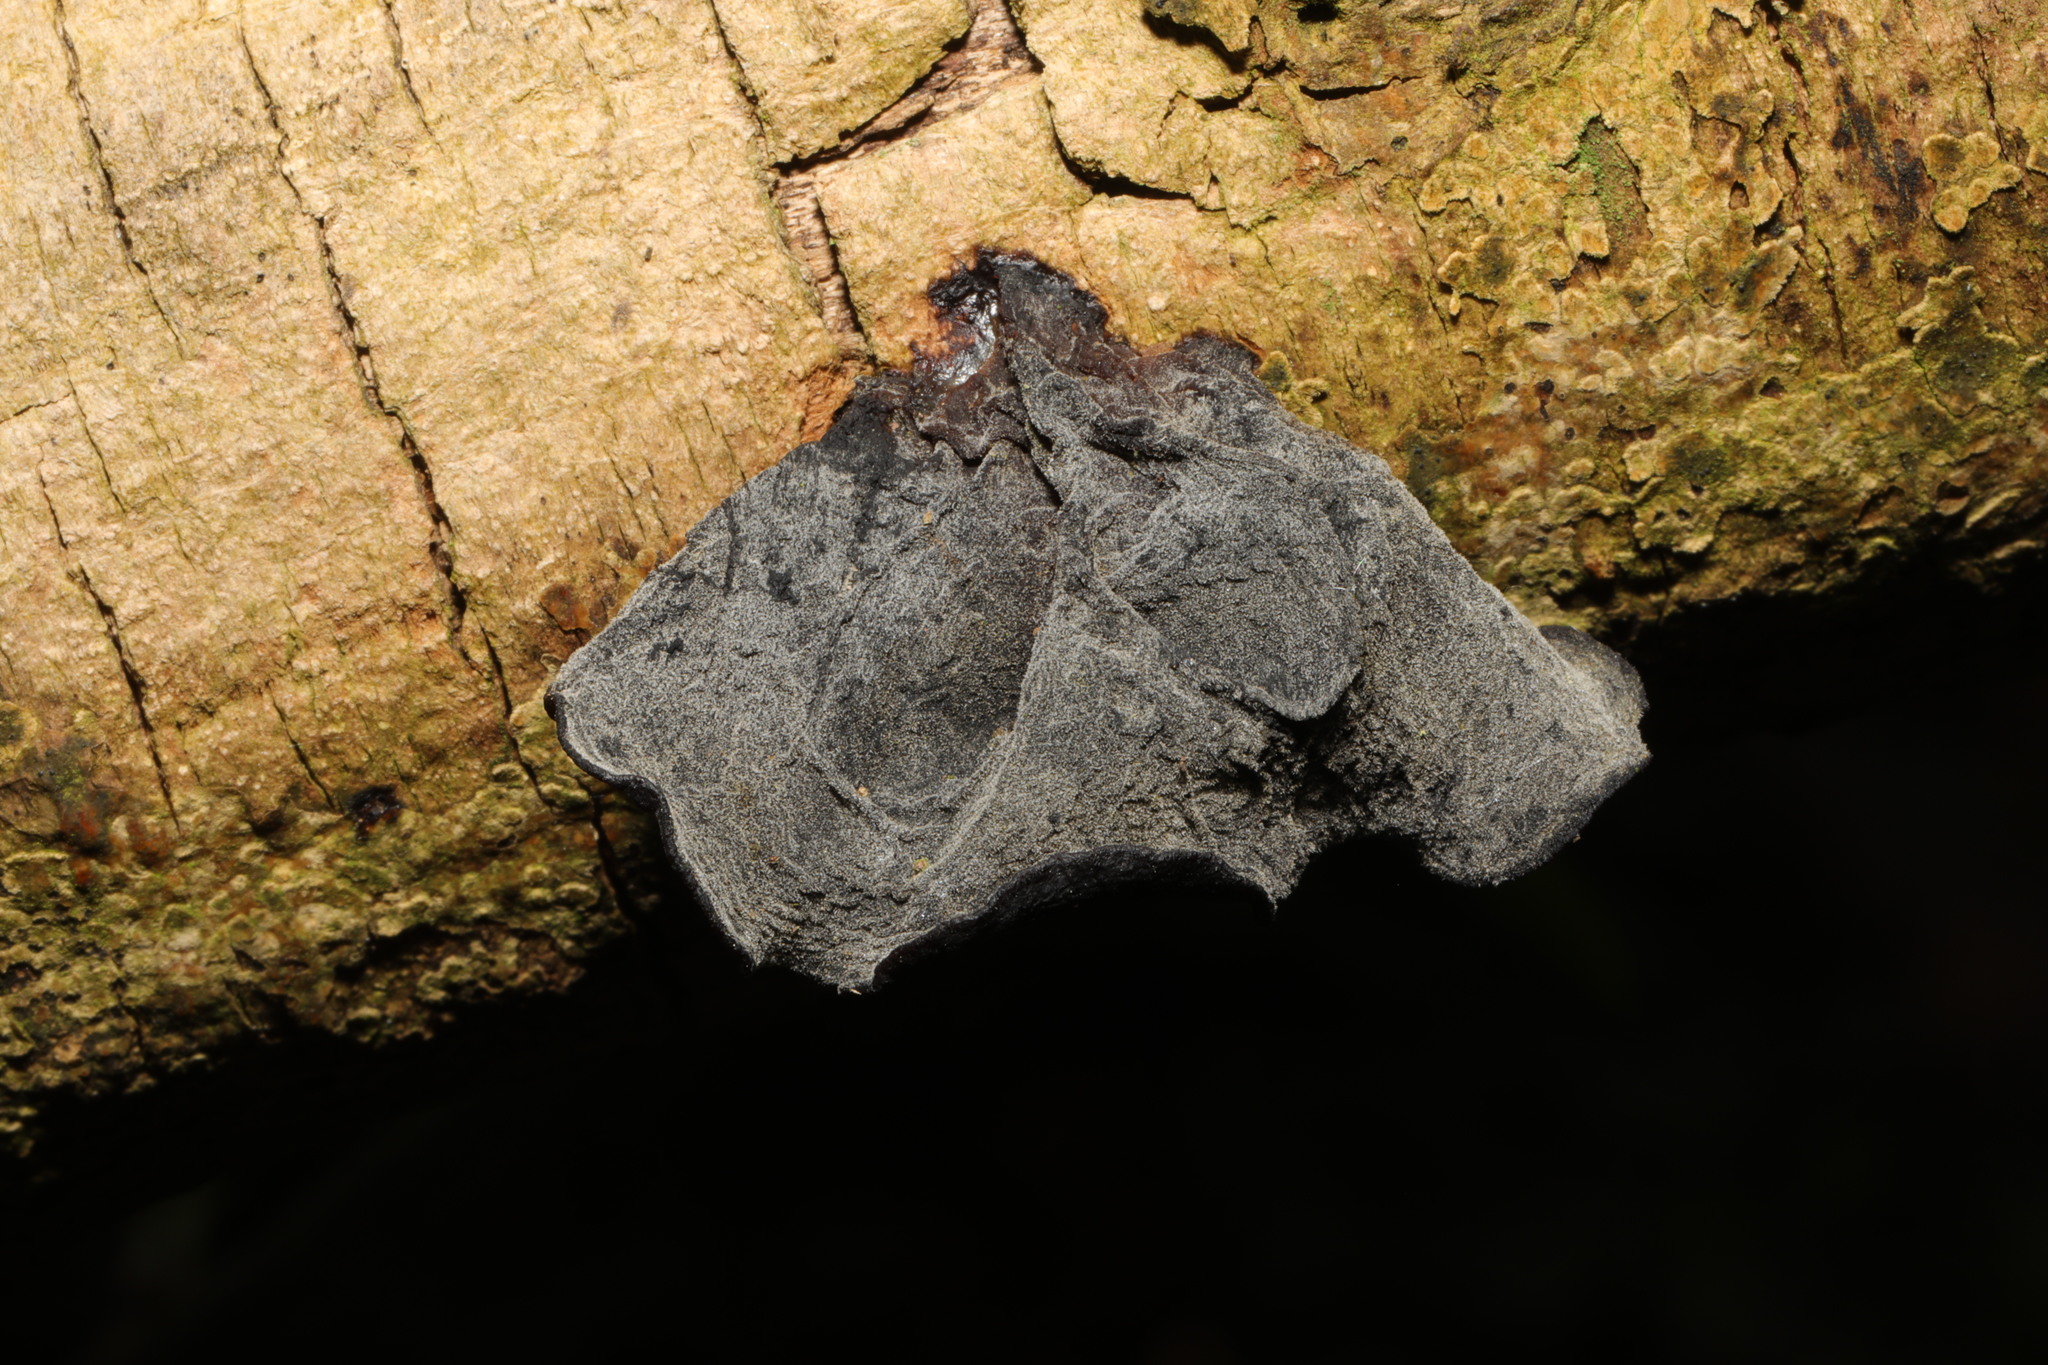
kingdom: Fungi
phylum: Basidiomycota
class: Agaricomycetes
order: Auriculariales
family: Auriculariaceae
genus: Auricularia
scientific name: Auricularia auricula-judae
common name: Jelly ear
